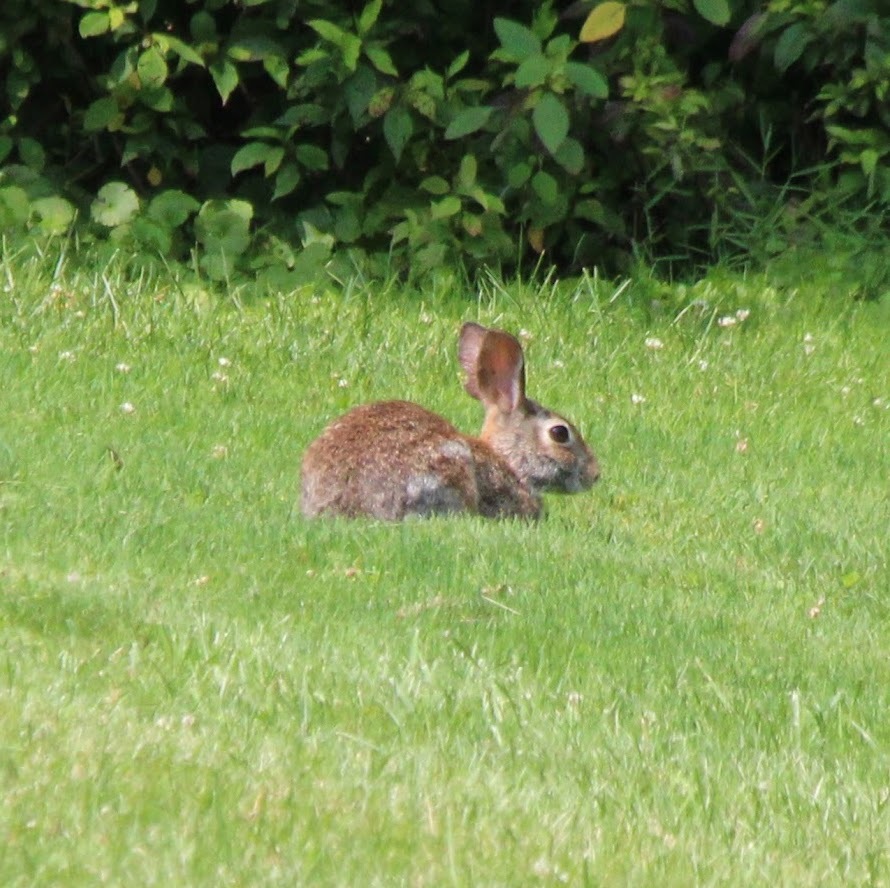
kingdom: Animalia
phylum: Chordata
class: Mammalia
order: Lagomorpha
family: Leporidae
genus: Sylvilagus
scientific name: Sylvilagus floridanus
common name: Eastern cottontail
